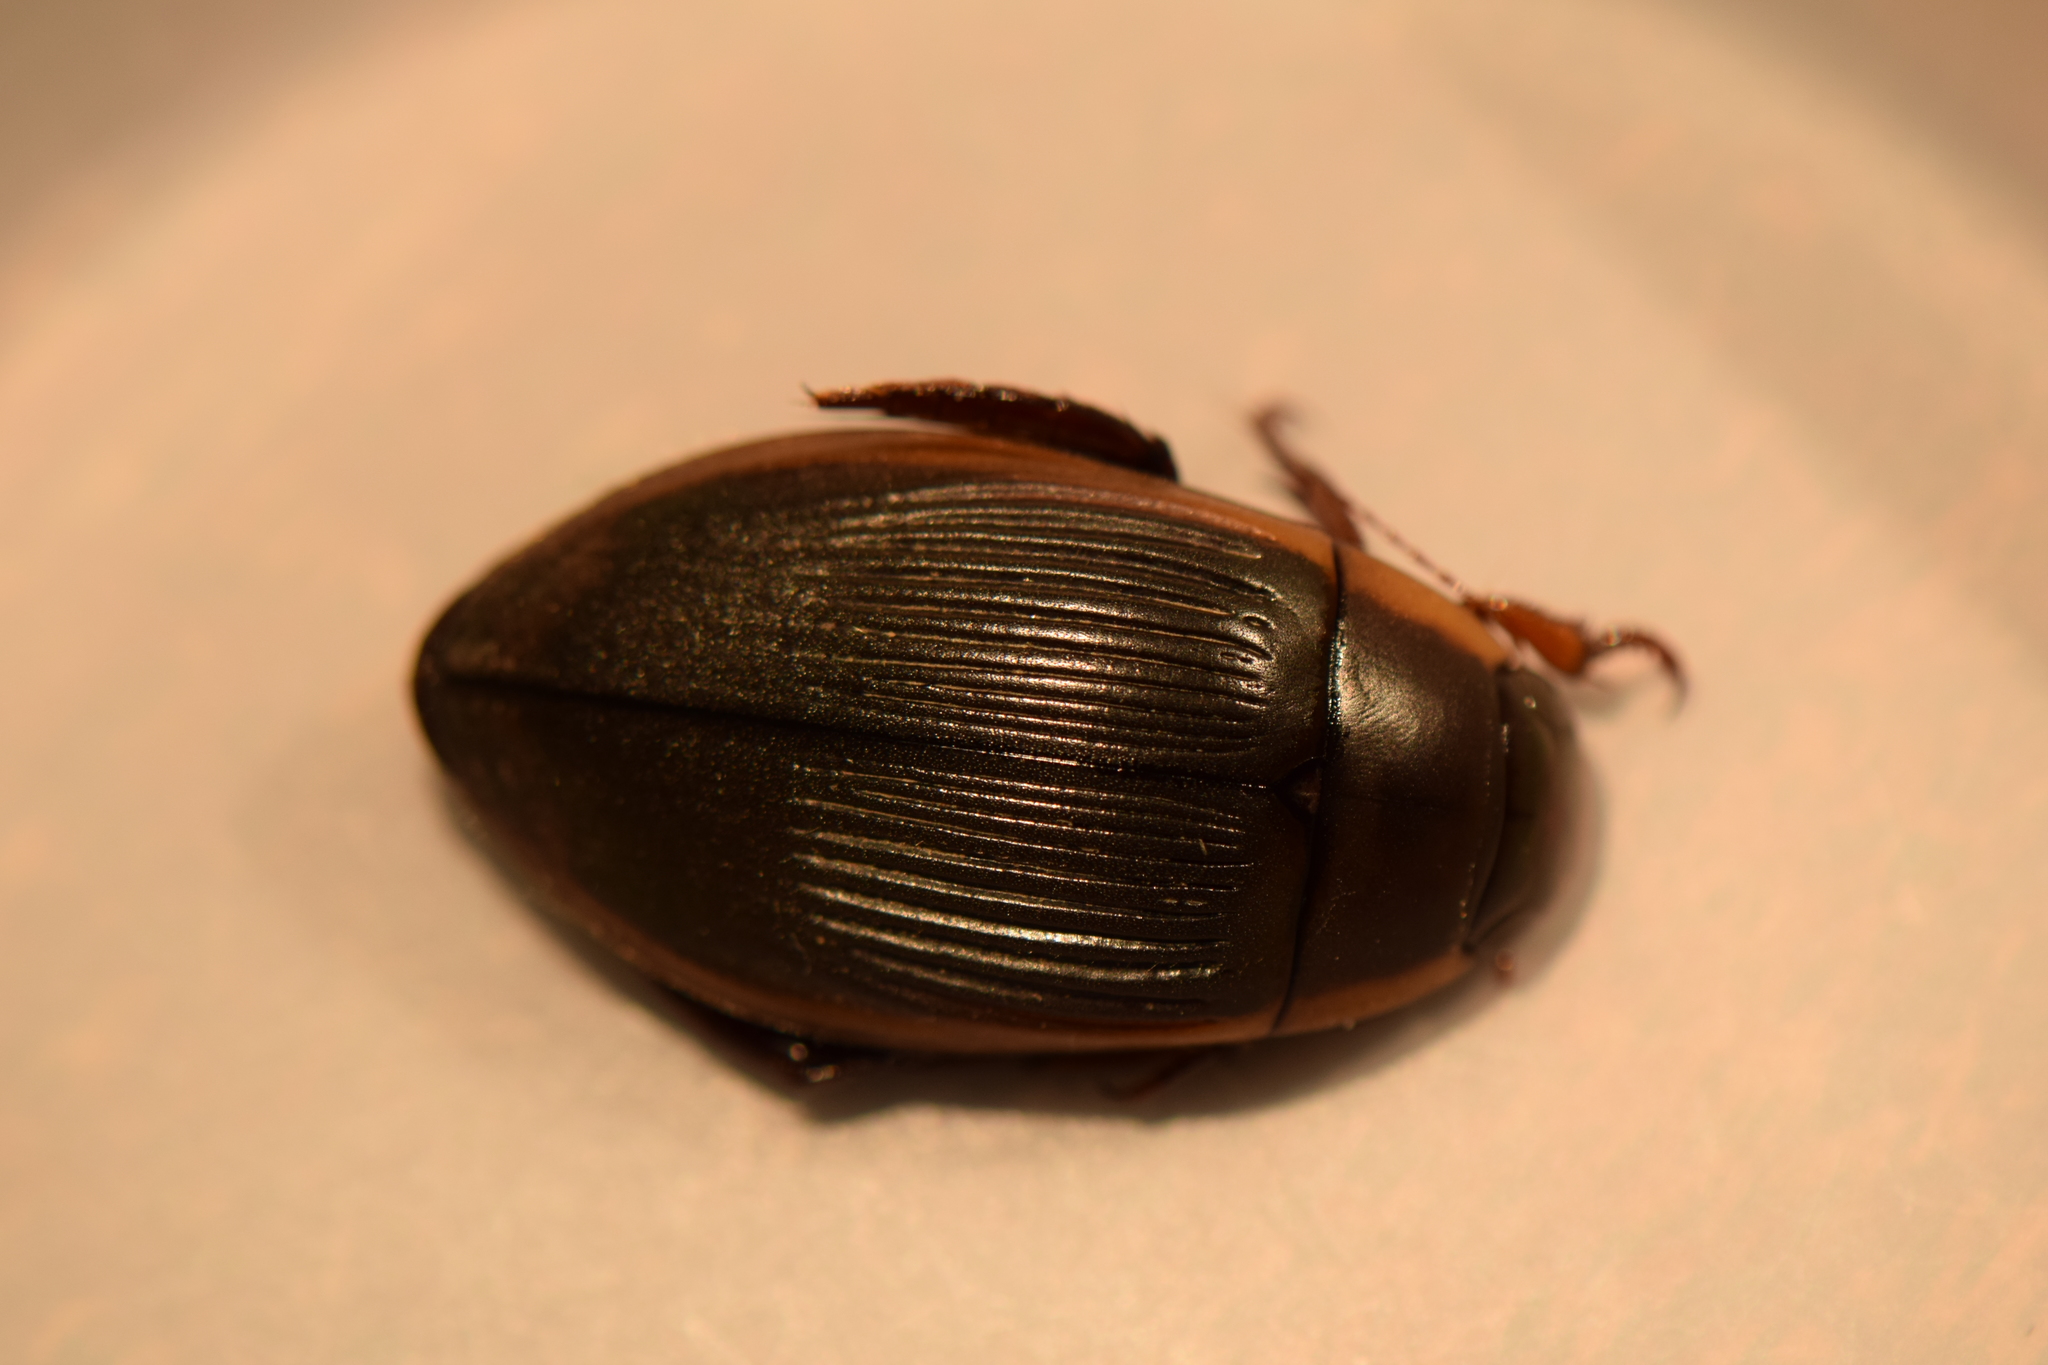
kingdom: Animalia
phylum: Arthropoda
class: Insecta
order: Coleoptera
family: Dytiscidae
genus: Dytiscus
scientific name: Dytiscus carolinus
